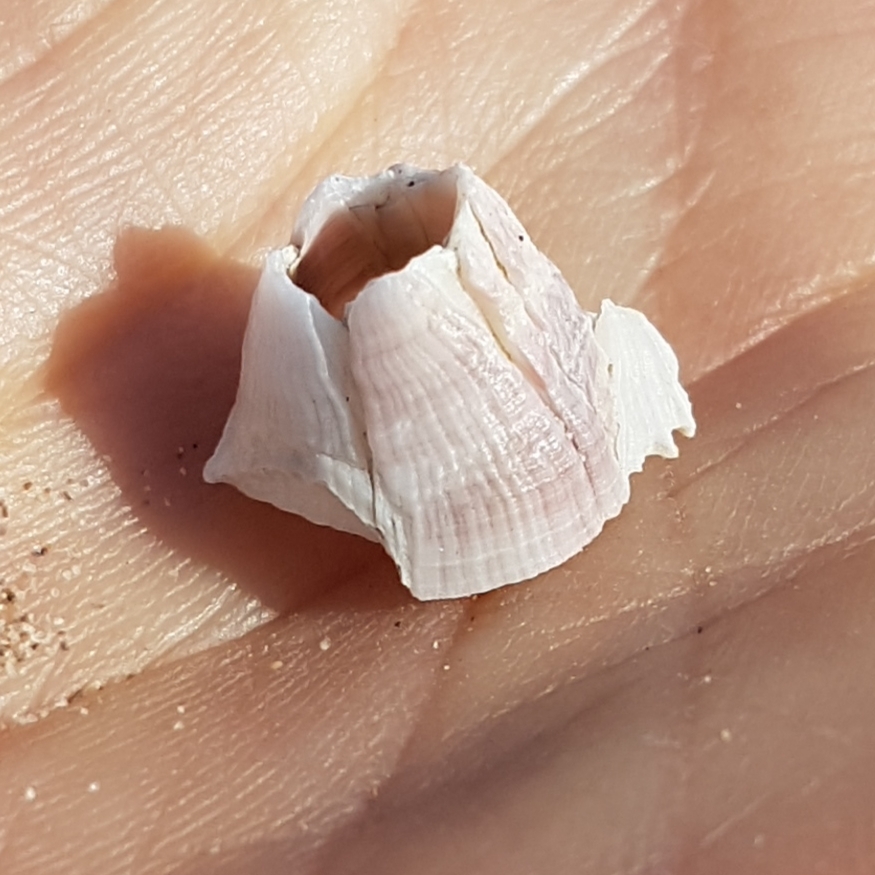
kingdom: Animalia
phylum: Arthropoda
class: Maxillopoda
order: Sessilia
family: Balanidae
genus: Perforatus
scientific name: Perforatus perforatus
